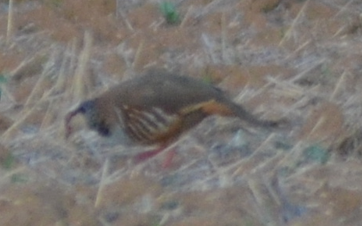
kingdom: Animalia
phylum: Chordata
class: Aves
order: Galliformes
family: Phasianidae
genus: Alectoris
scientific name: Alectoris rufa
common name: Red-legged partridge
